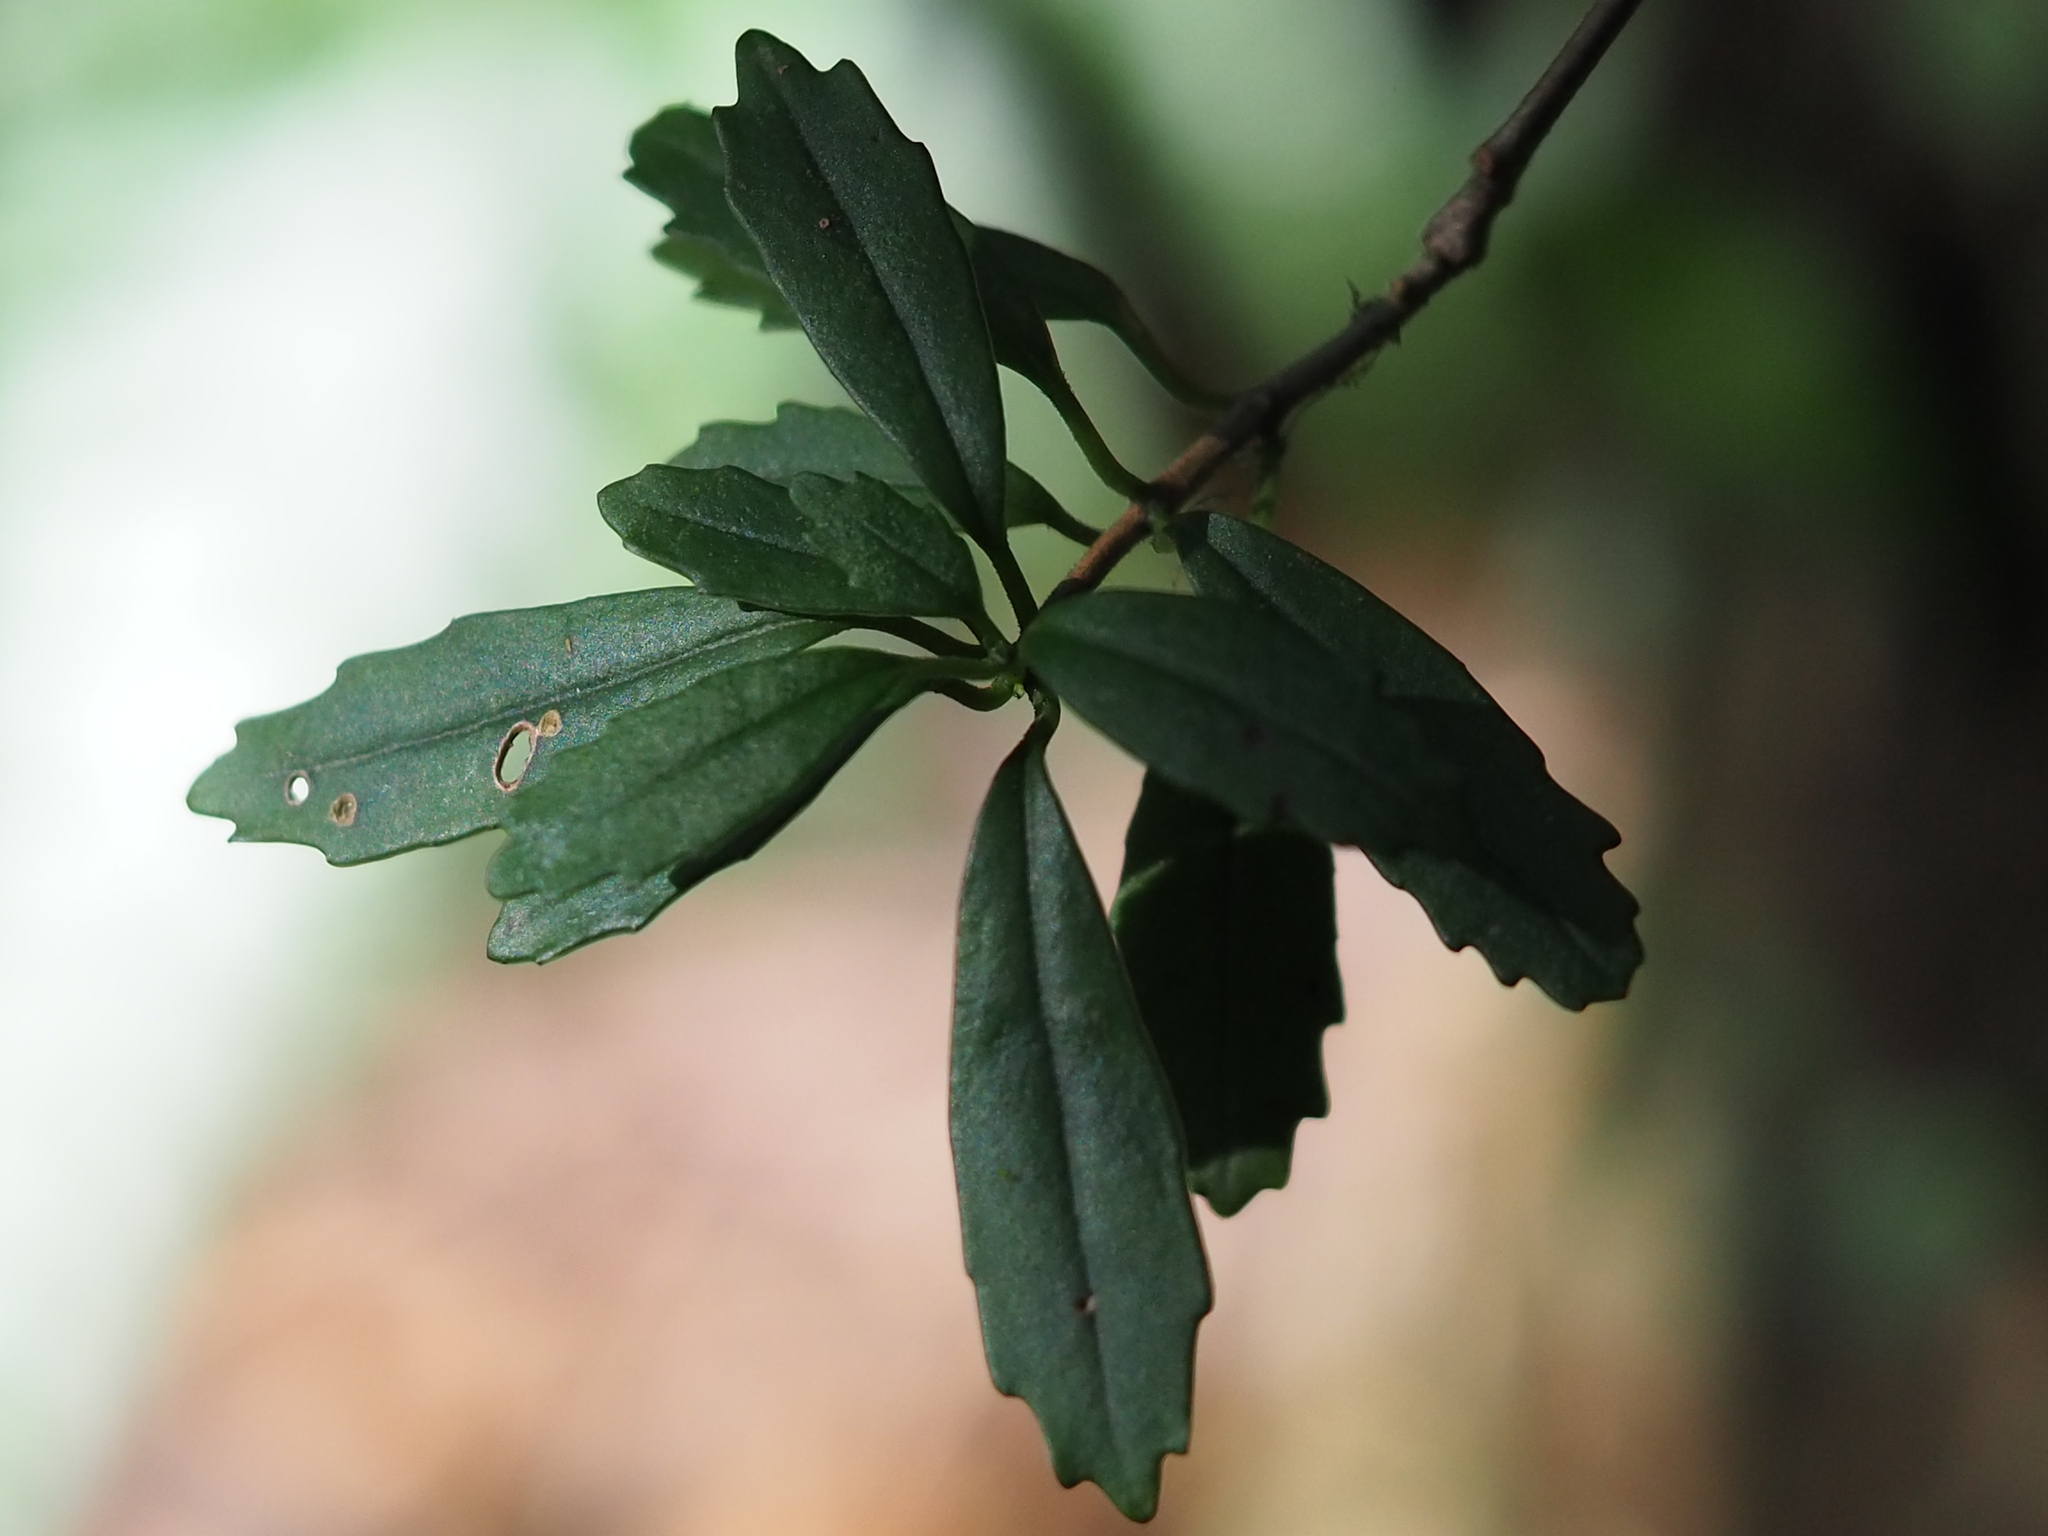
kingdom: Plantae
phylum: Tracheophyta
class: Magnoliopsida
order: Lamiales
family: Gesneriaceae
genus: Lysionotus
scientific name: Lysionotus pauciflorus
